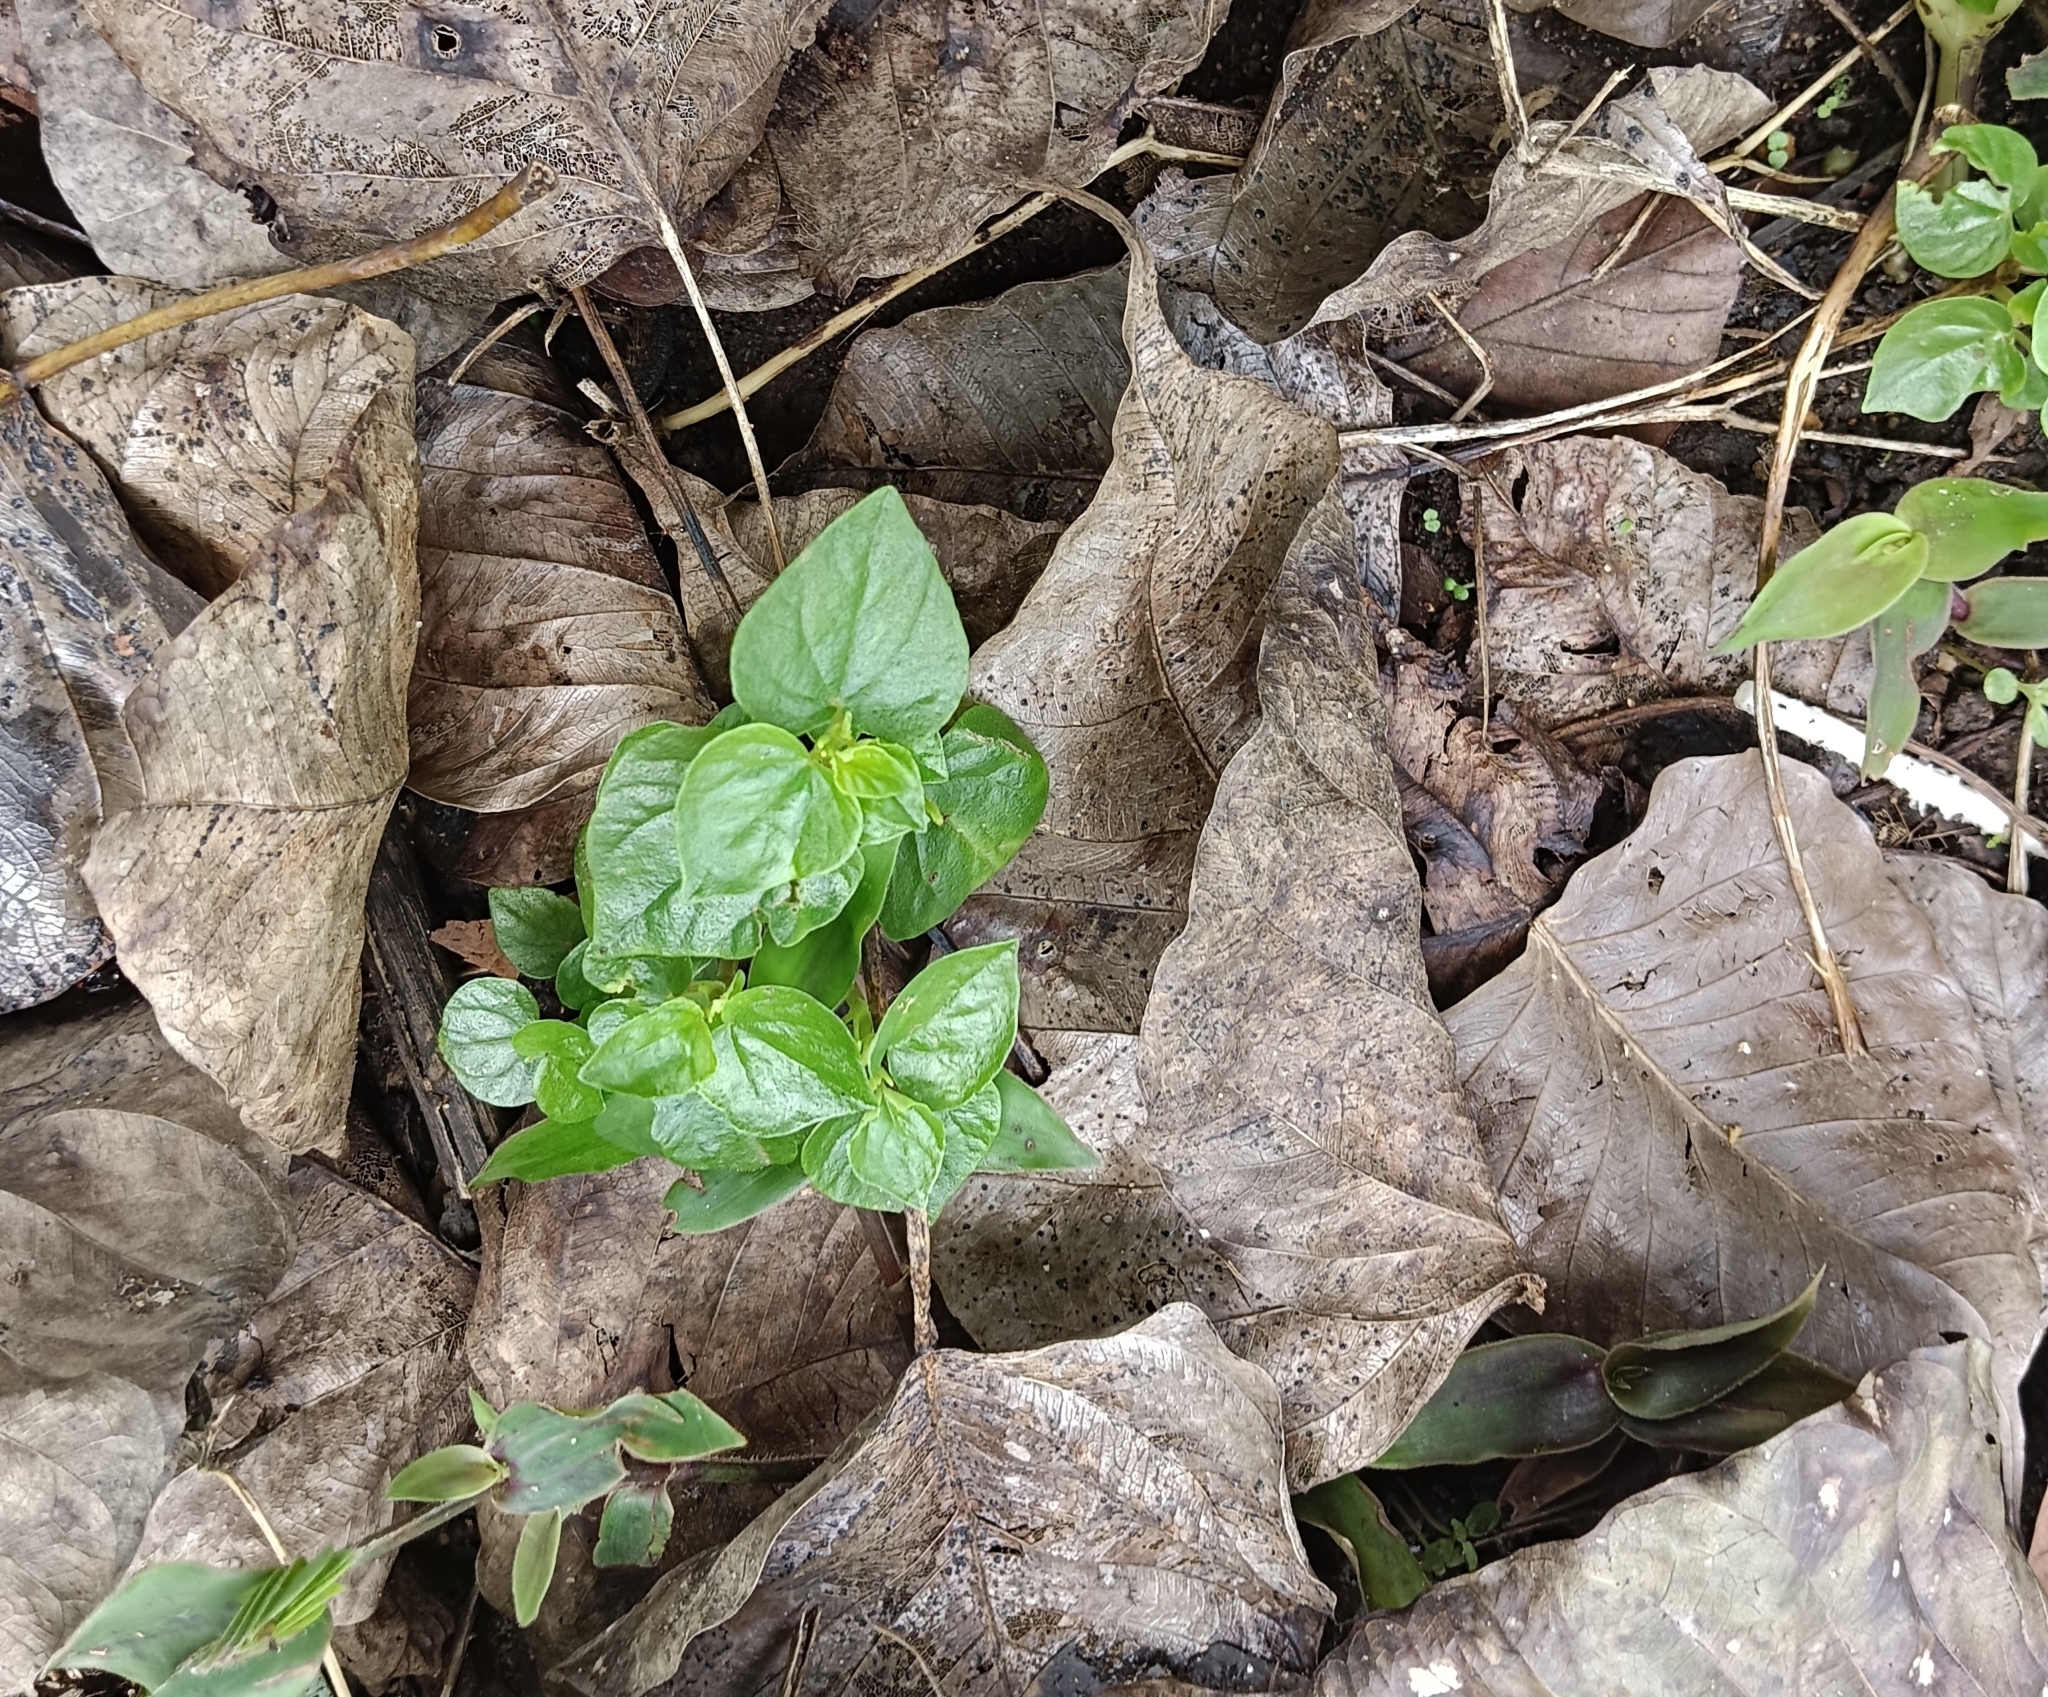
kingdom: Plantae
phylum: Tracheophyta
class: Magnoliopsida
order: Piperales
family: Piperaceae
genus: Peperomia
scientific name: Peperomia pellucida
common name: Man to man
